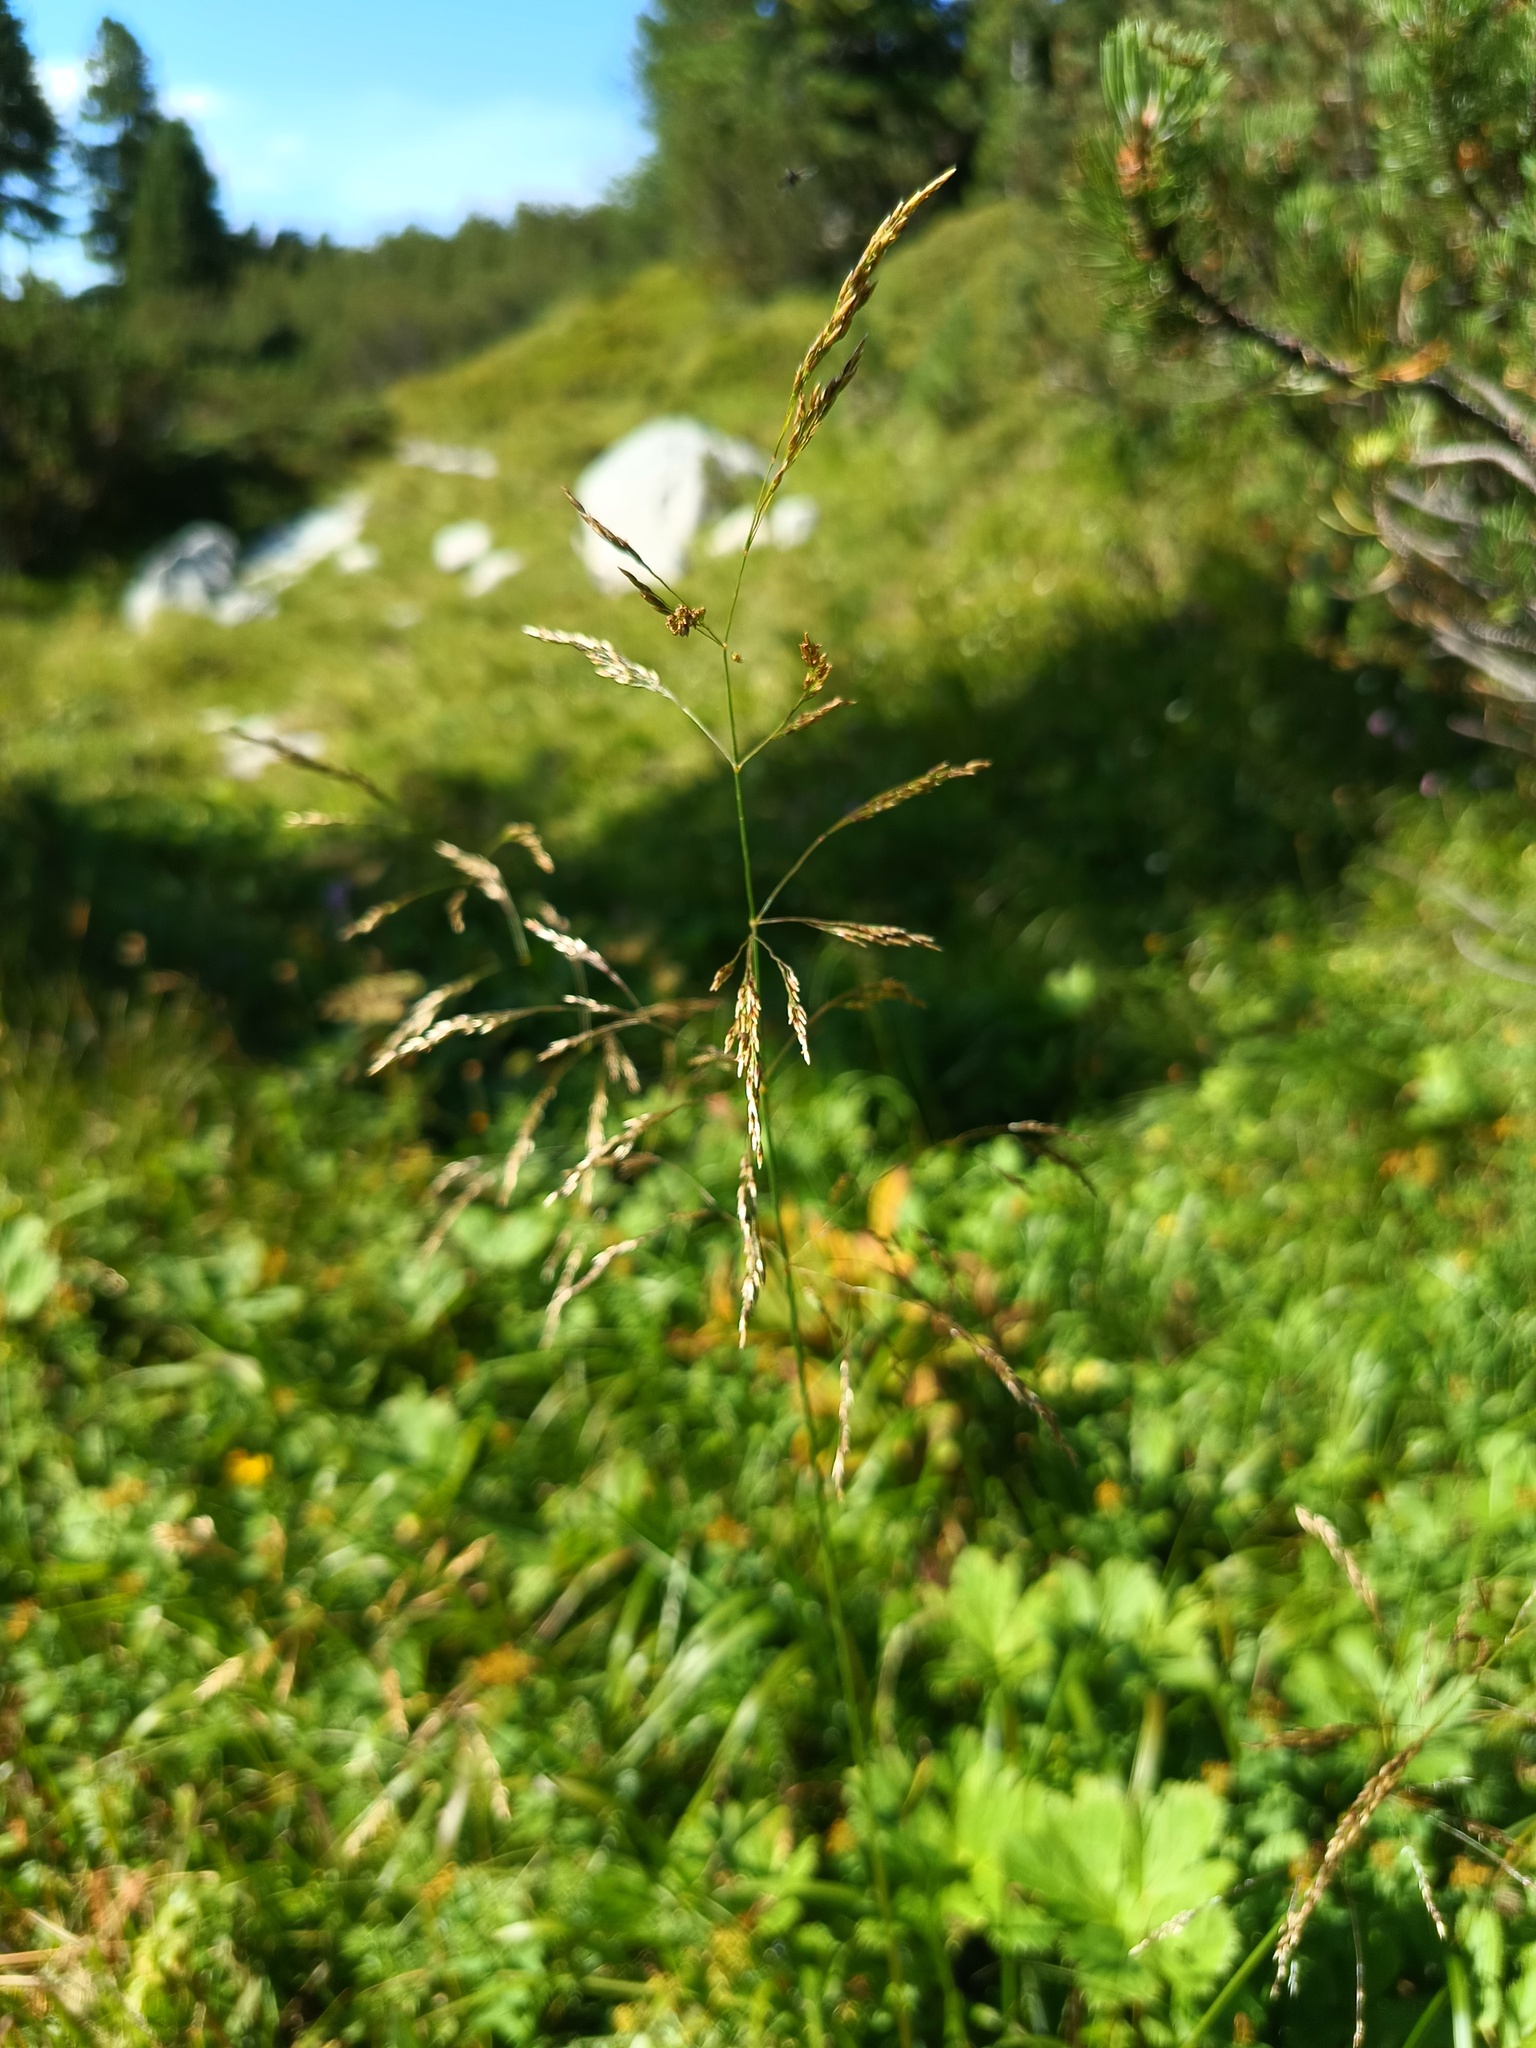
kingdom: Plantae
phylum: Tracheophyta
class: Liliopsida
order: Poales
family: Poaceae
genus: Deschampsia
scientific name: Deschampsia cespitosa
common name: Tufted hair-grass
